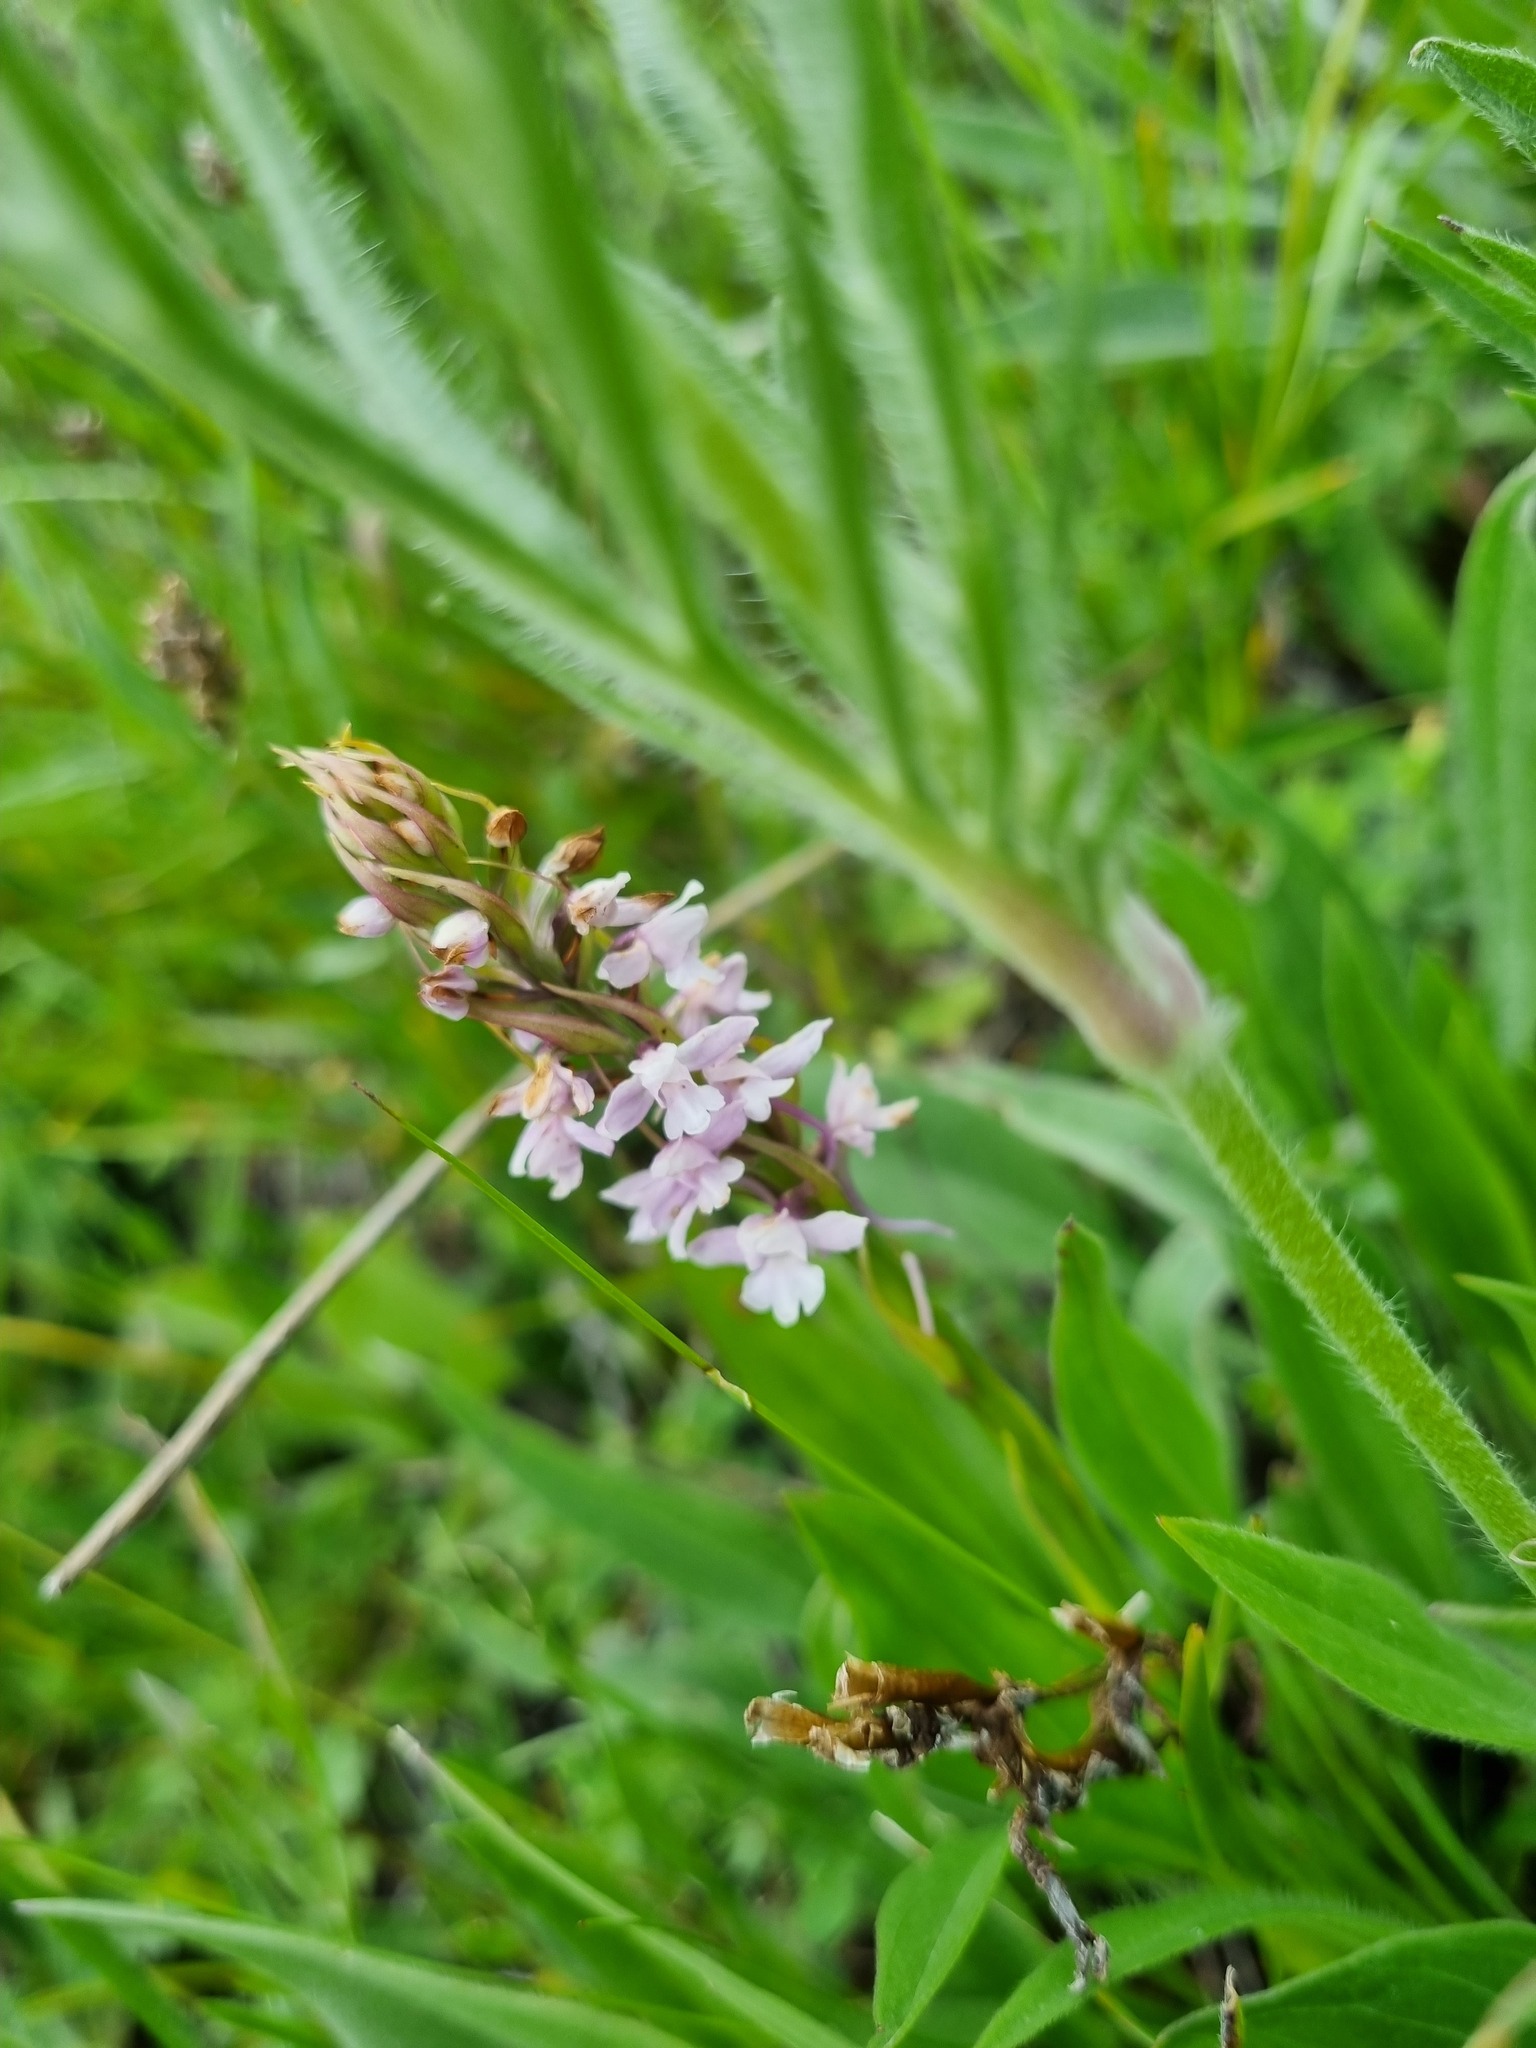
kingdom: Plantae
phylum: Tracheophyta
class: Liliopsida
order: Asparagales
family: Orchidaceae
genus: Gymnadenia
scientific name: Gymnadenia conopsea
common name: Fragrant orchid
